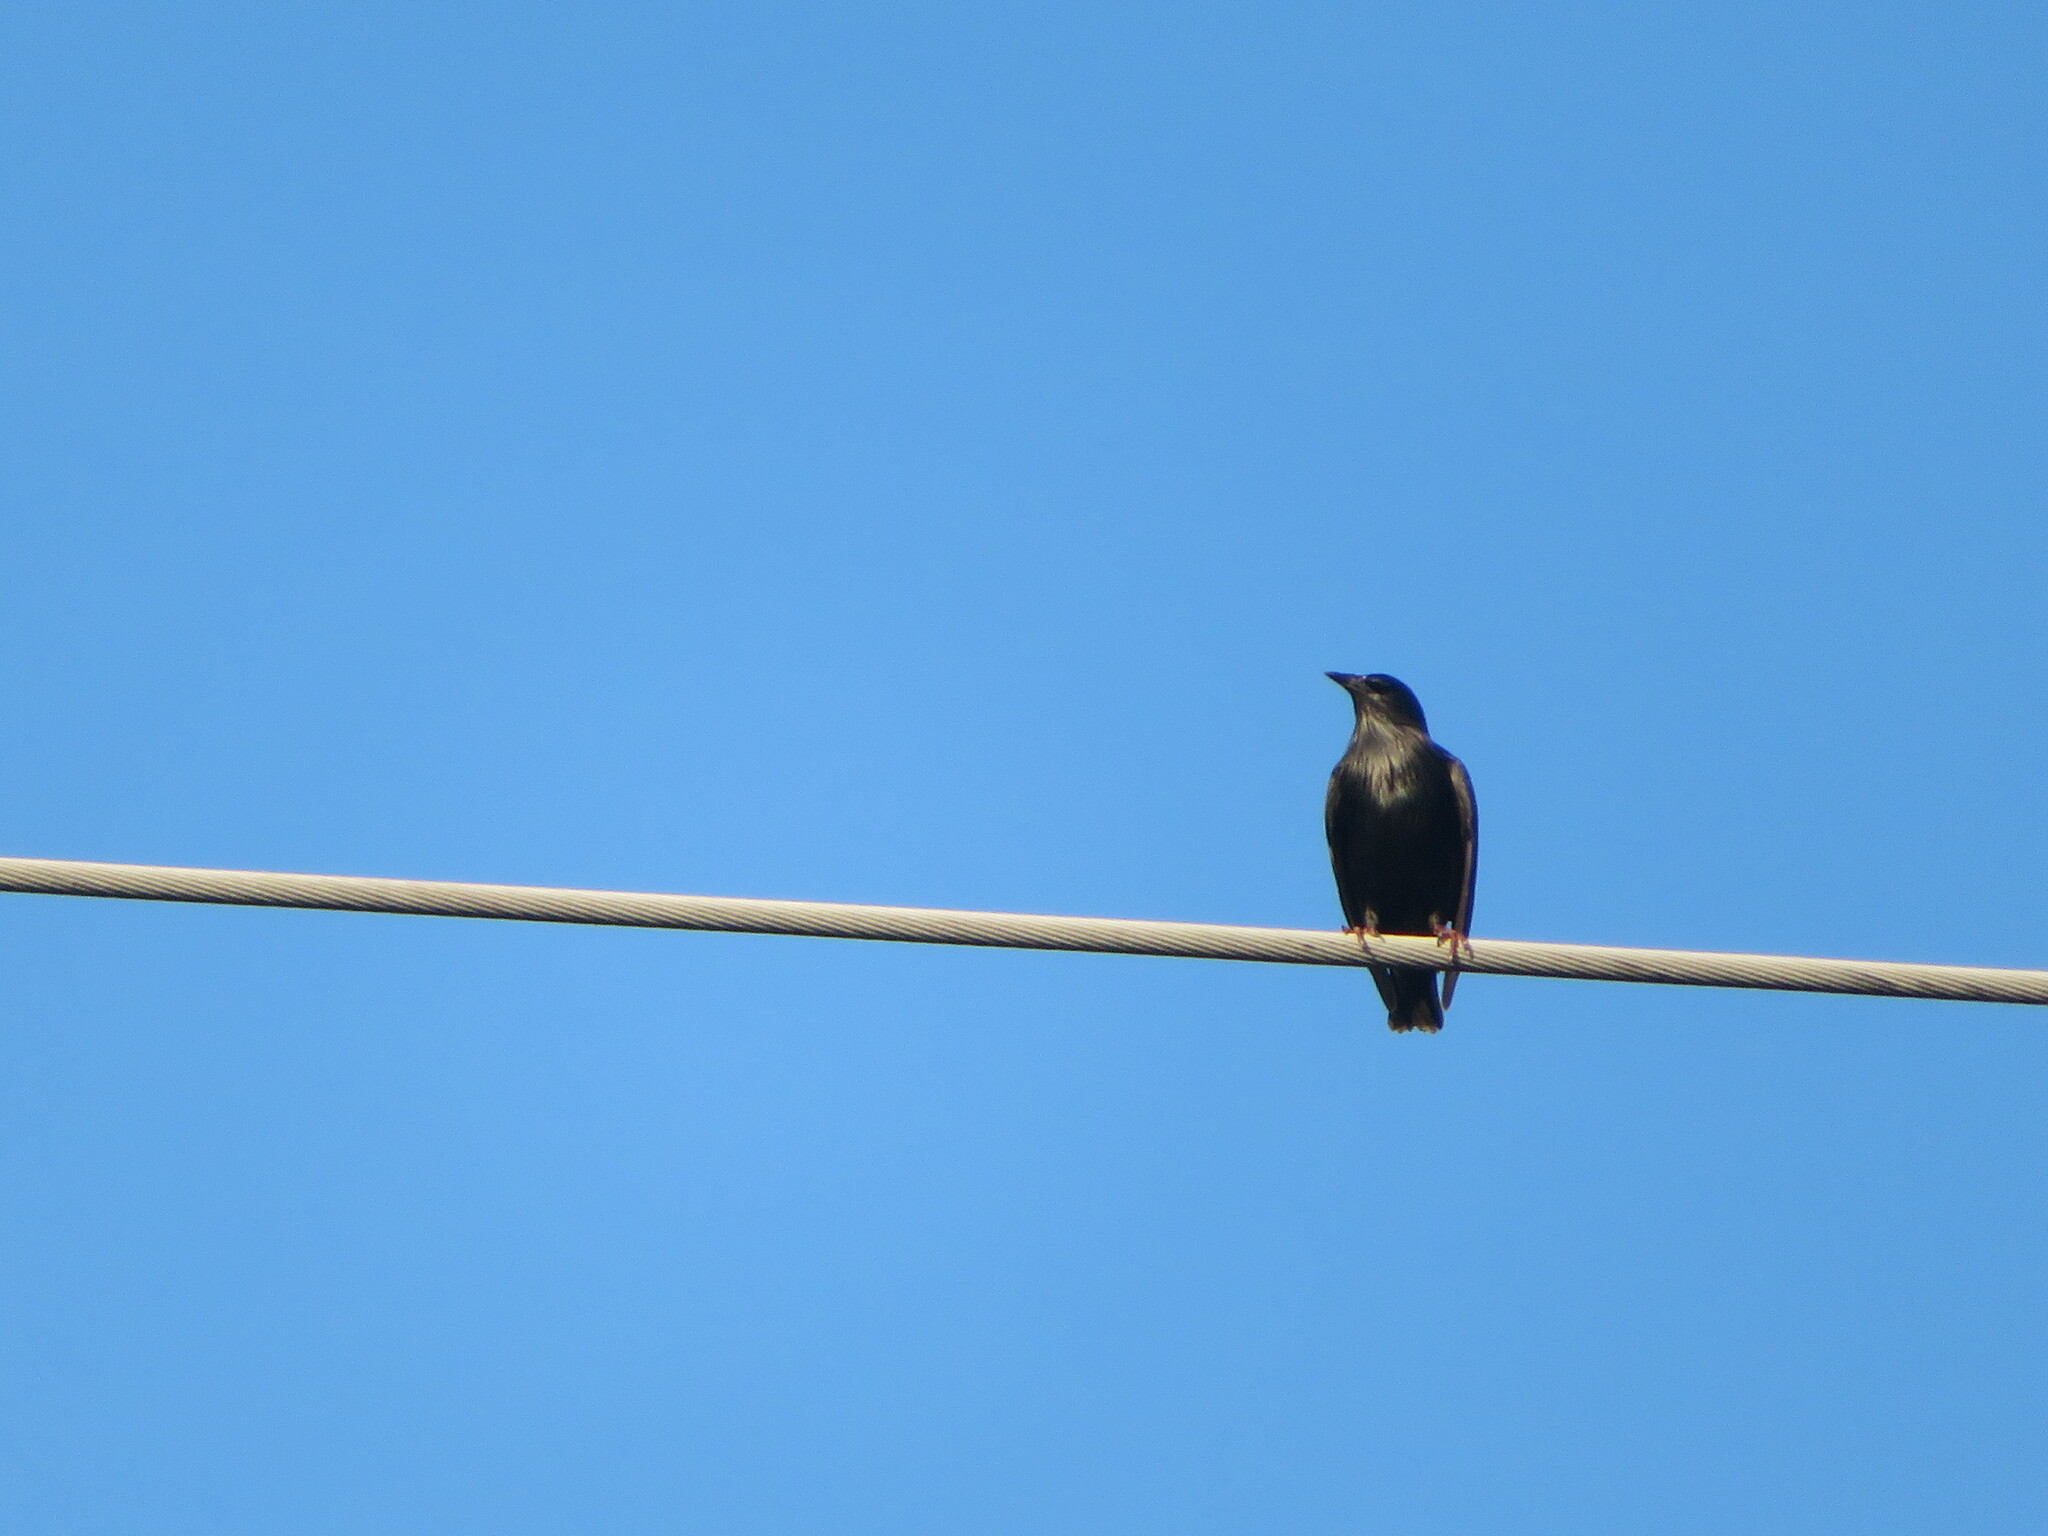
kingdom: Animalia
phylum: Chordata
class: Aves
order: Passeriformes
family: Sturnidae
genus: Sturnus
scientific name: Sturnus unicolor
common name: Spotless starling
